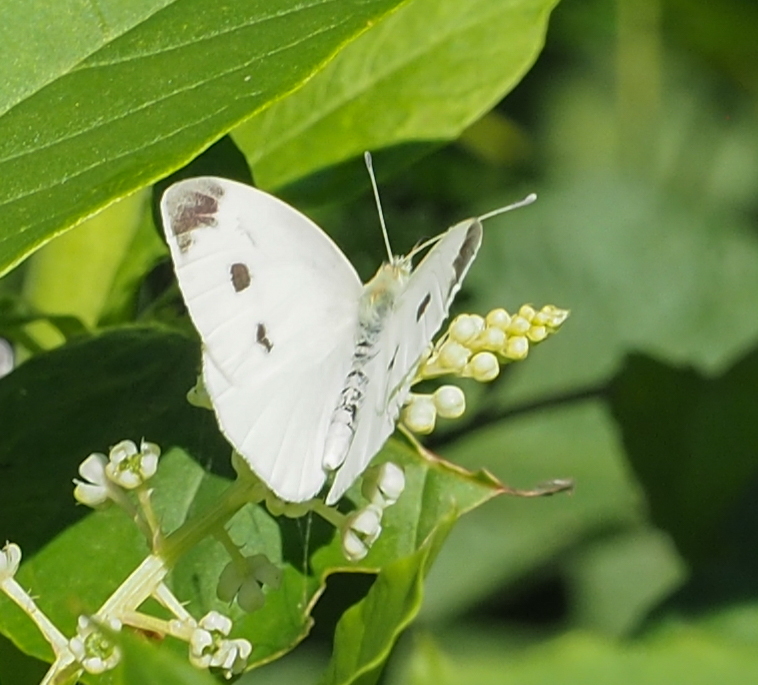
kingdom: Animalia
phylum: Arthropoda
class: Insecta
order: Lepidoptera
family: Pieridae
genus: Pieris
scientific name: Pieris rapae
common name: Small white
